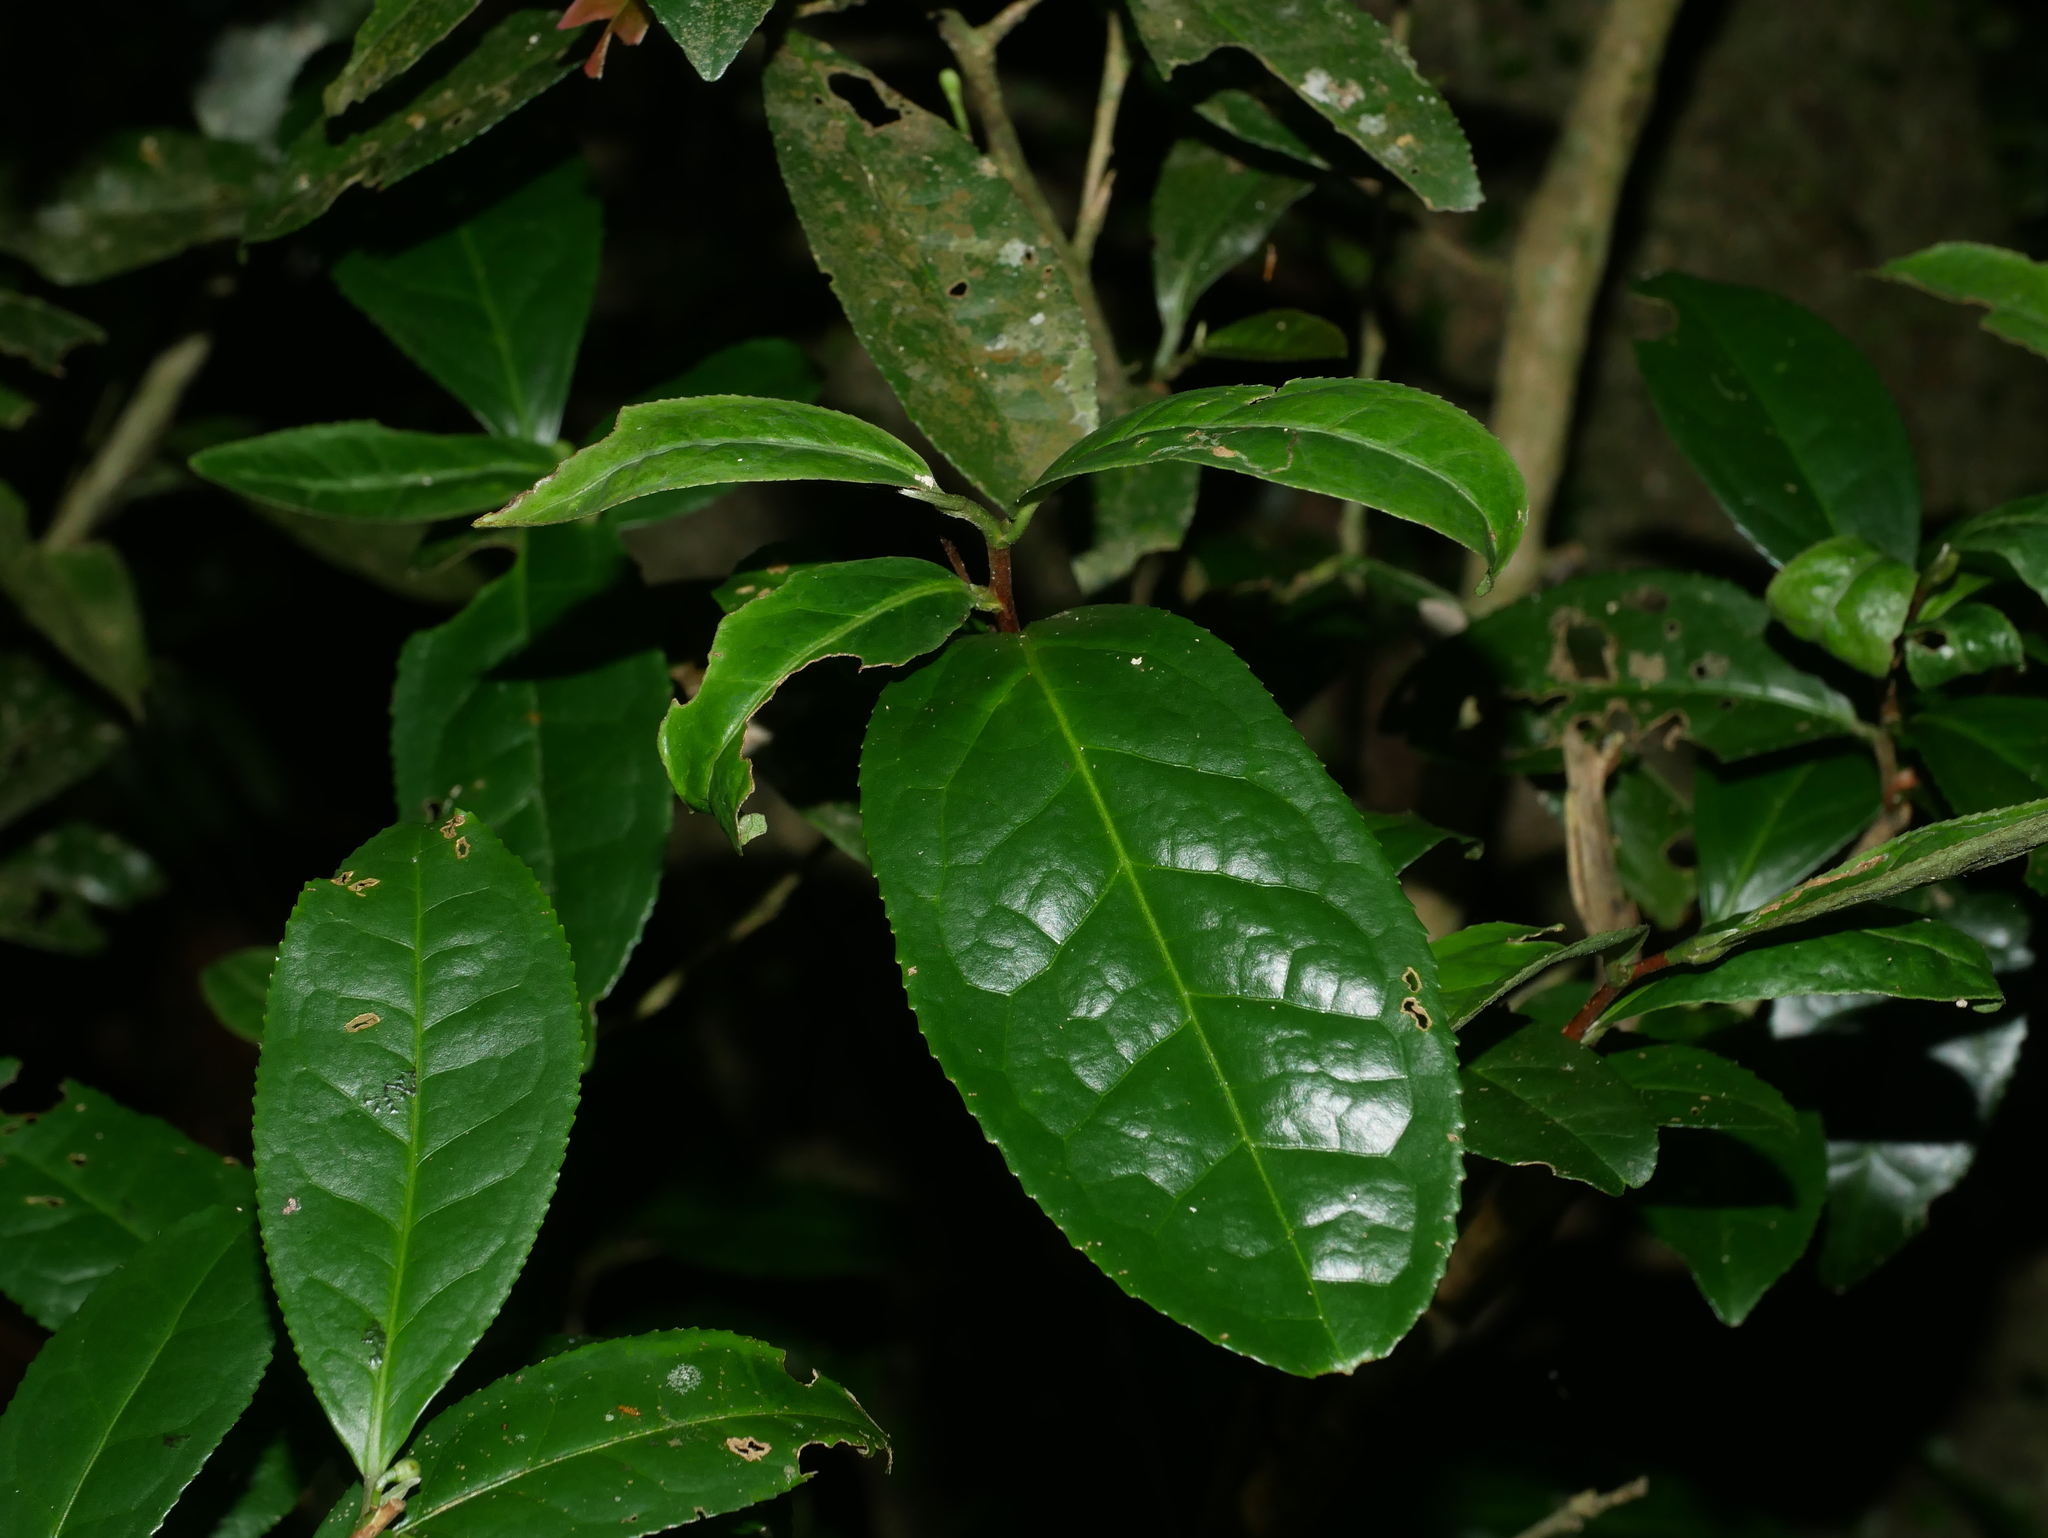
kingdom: Plantae
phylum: Tracheophyta
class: Magnoliopsida
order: Ericales
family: Theaceae
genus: Camellia
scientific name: Camellia sinensis
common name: Tea
